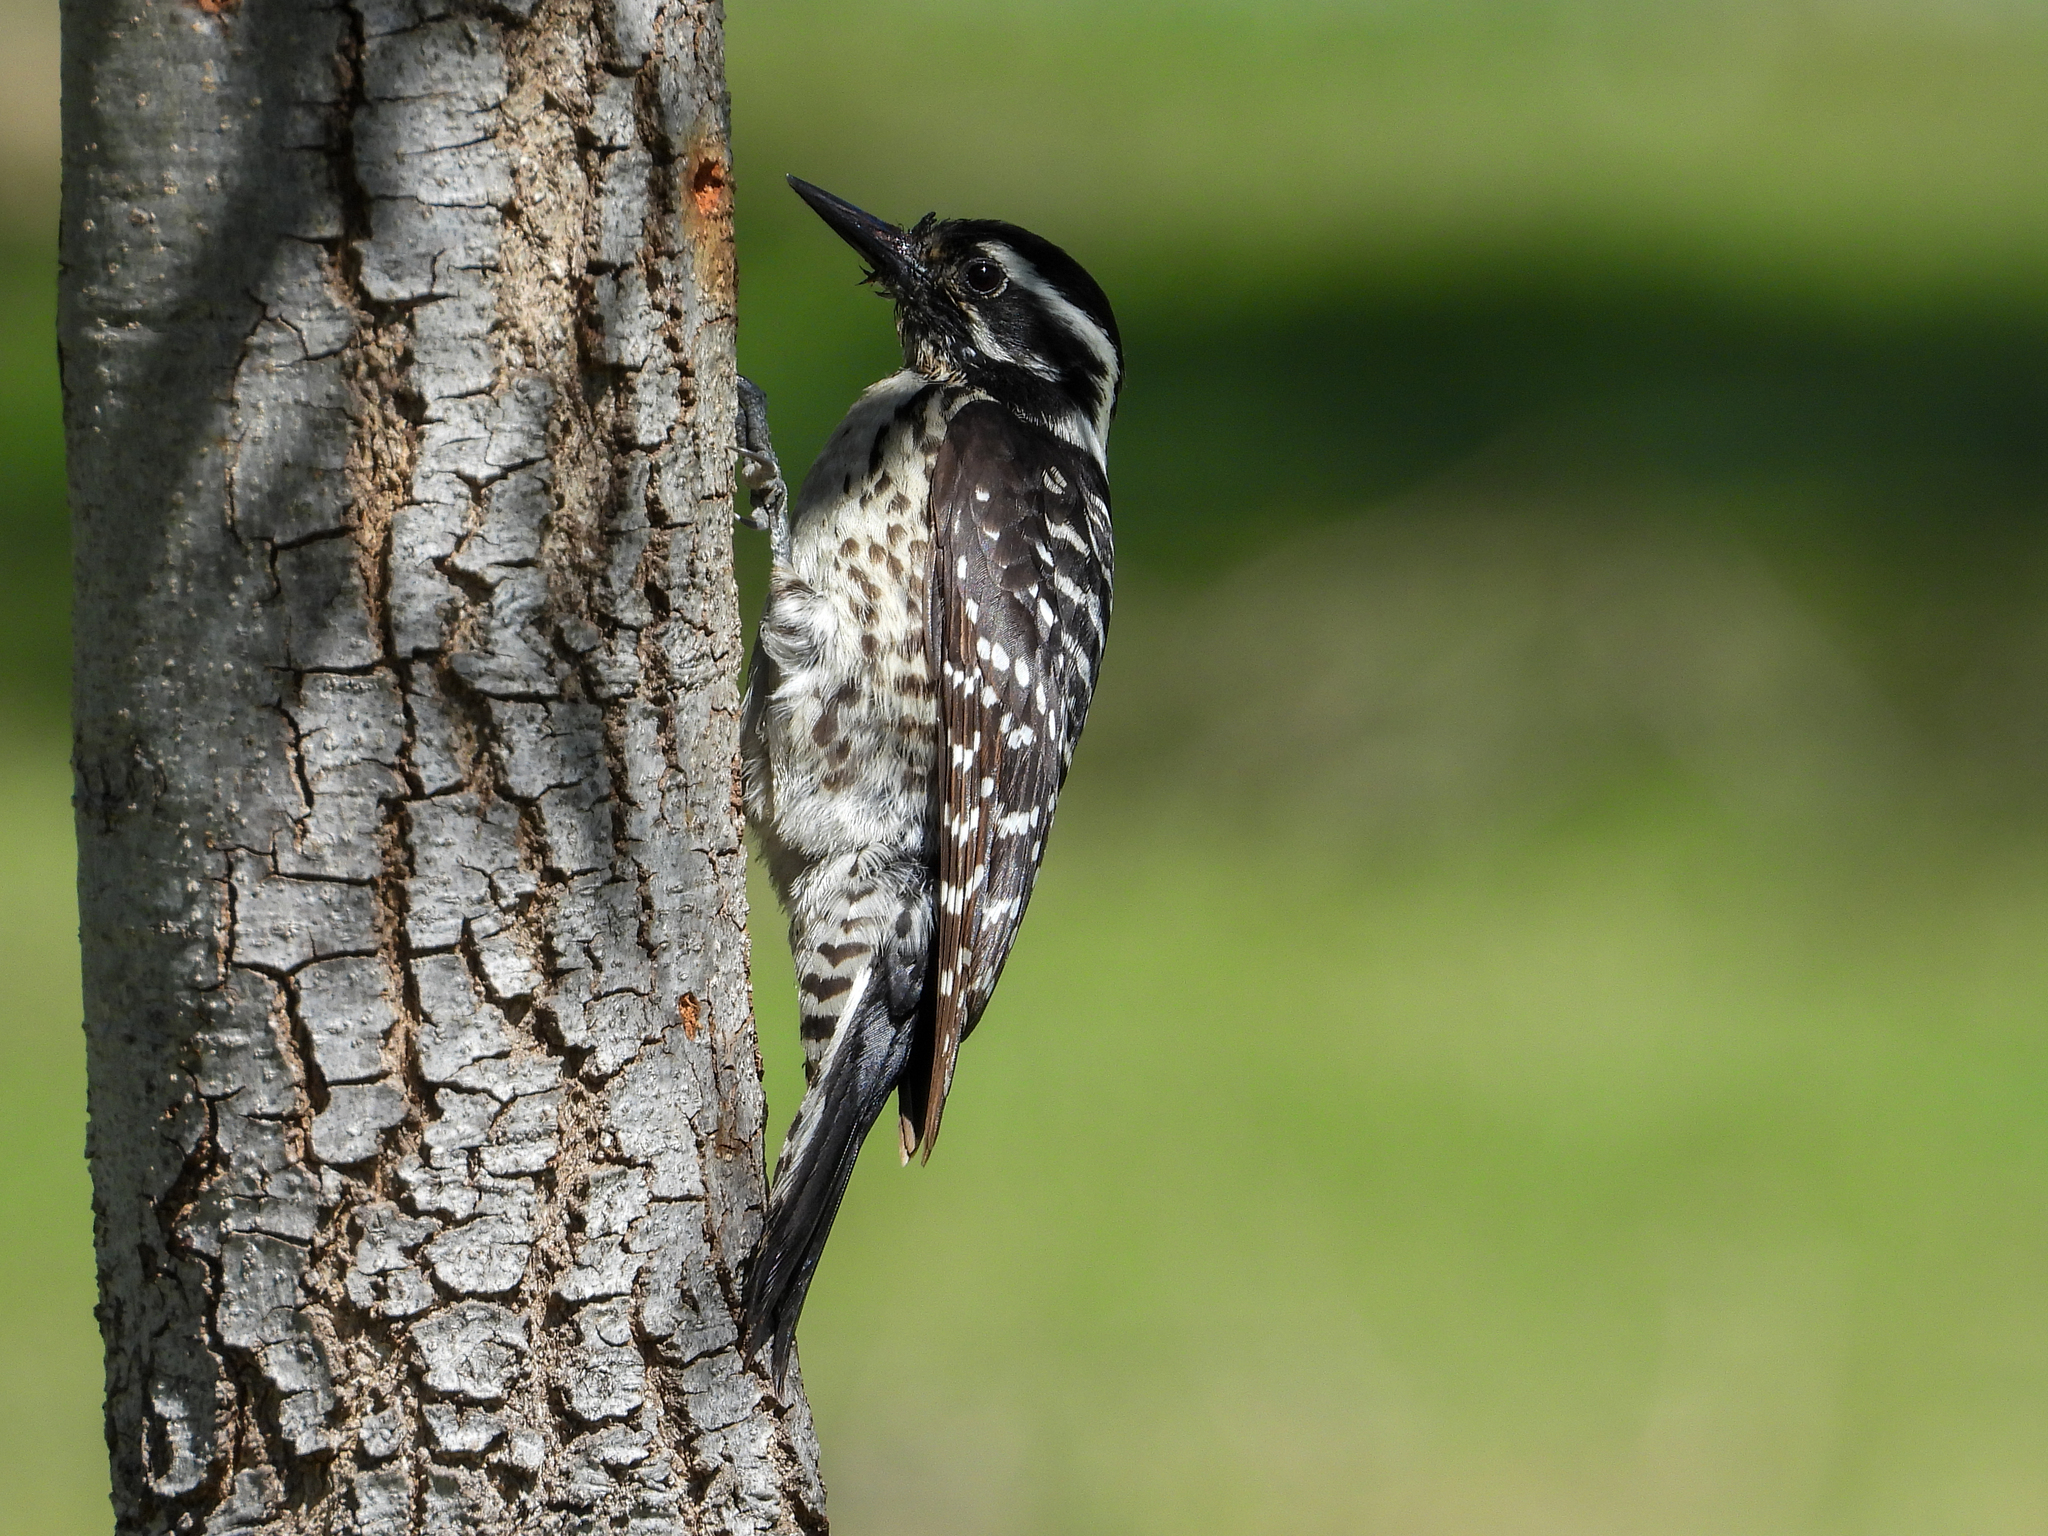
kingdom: Animalia
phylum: Chordata
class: Aves
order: Piciformes
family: Picidae
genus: Dryobates
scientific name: Dryobates nuttallii
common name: Nuttall's woodpecker
